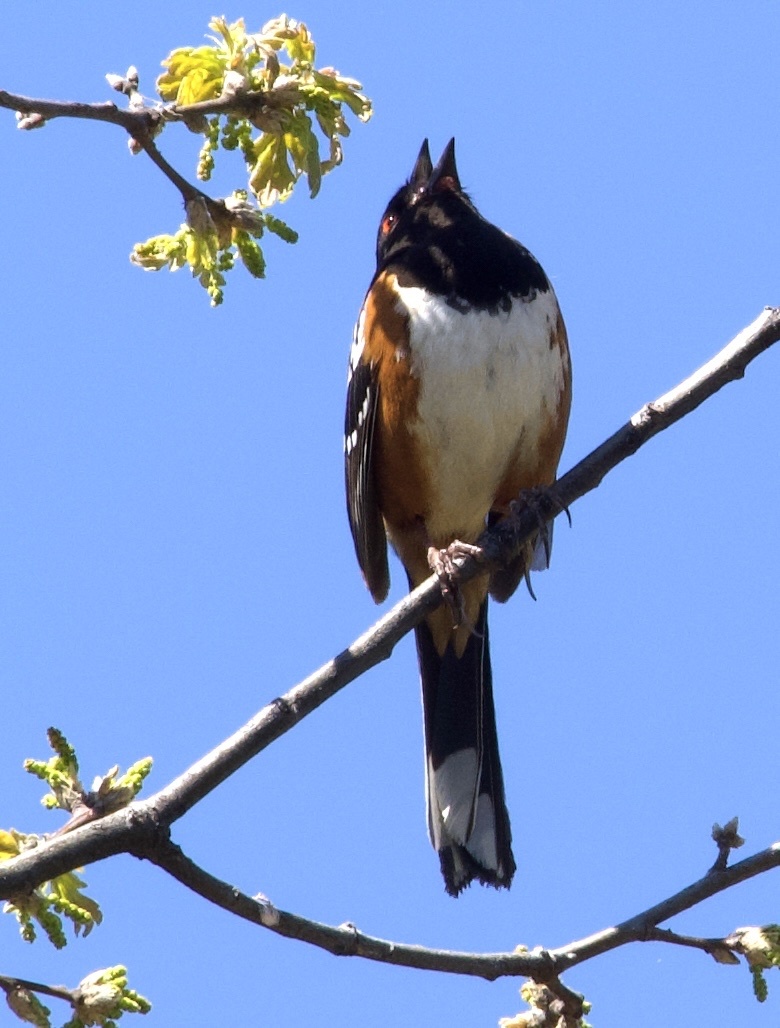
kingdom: Animalia
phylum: Chordata
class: Aves
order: Passeriformes
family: Passerellidae
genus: Pipilo
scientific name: Pipilo maculatus
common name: Spotted towhee
